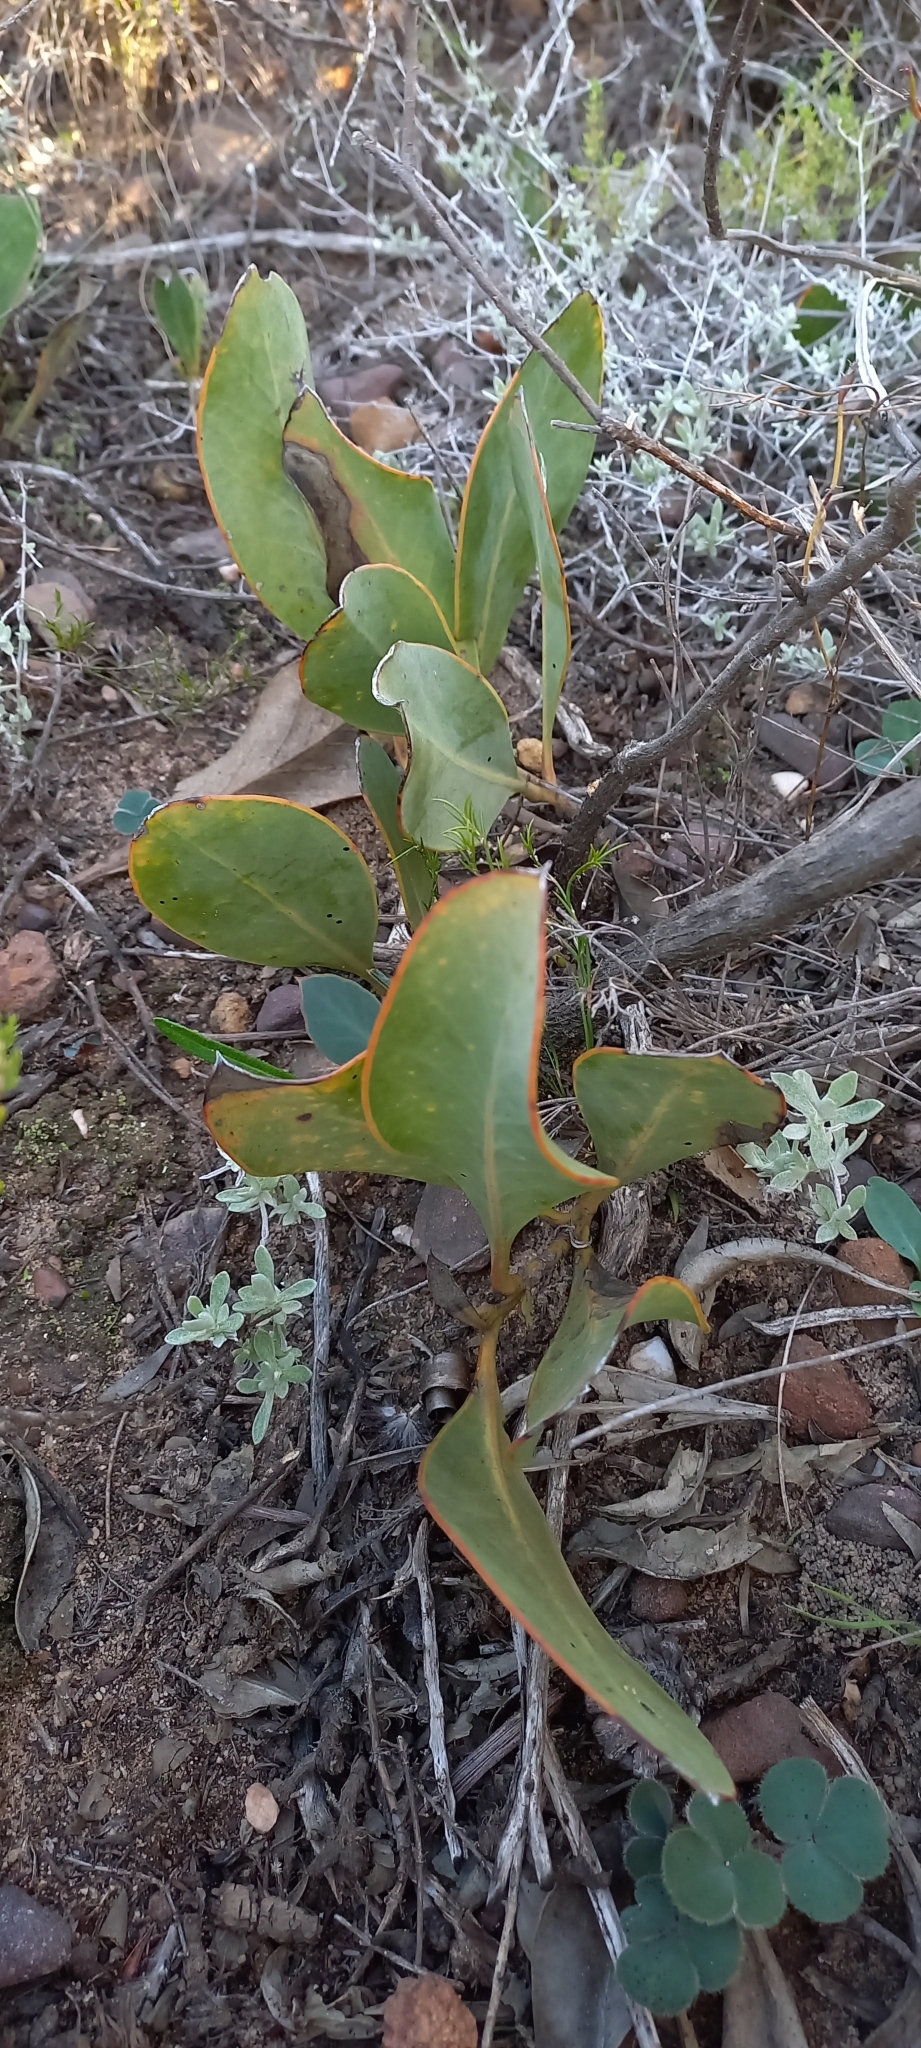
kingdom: Plantae
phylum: Tracheophyta
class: Magnoliopsida
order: Proteales
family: Proteaceae
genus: Protea
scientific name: Protea acaulos
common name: Common ground sugarbush
